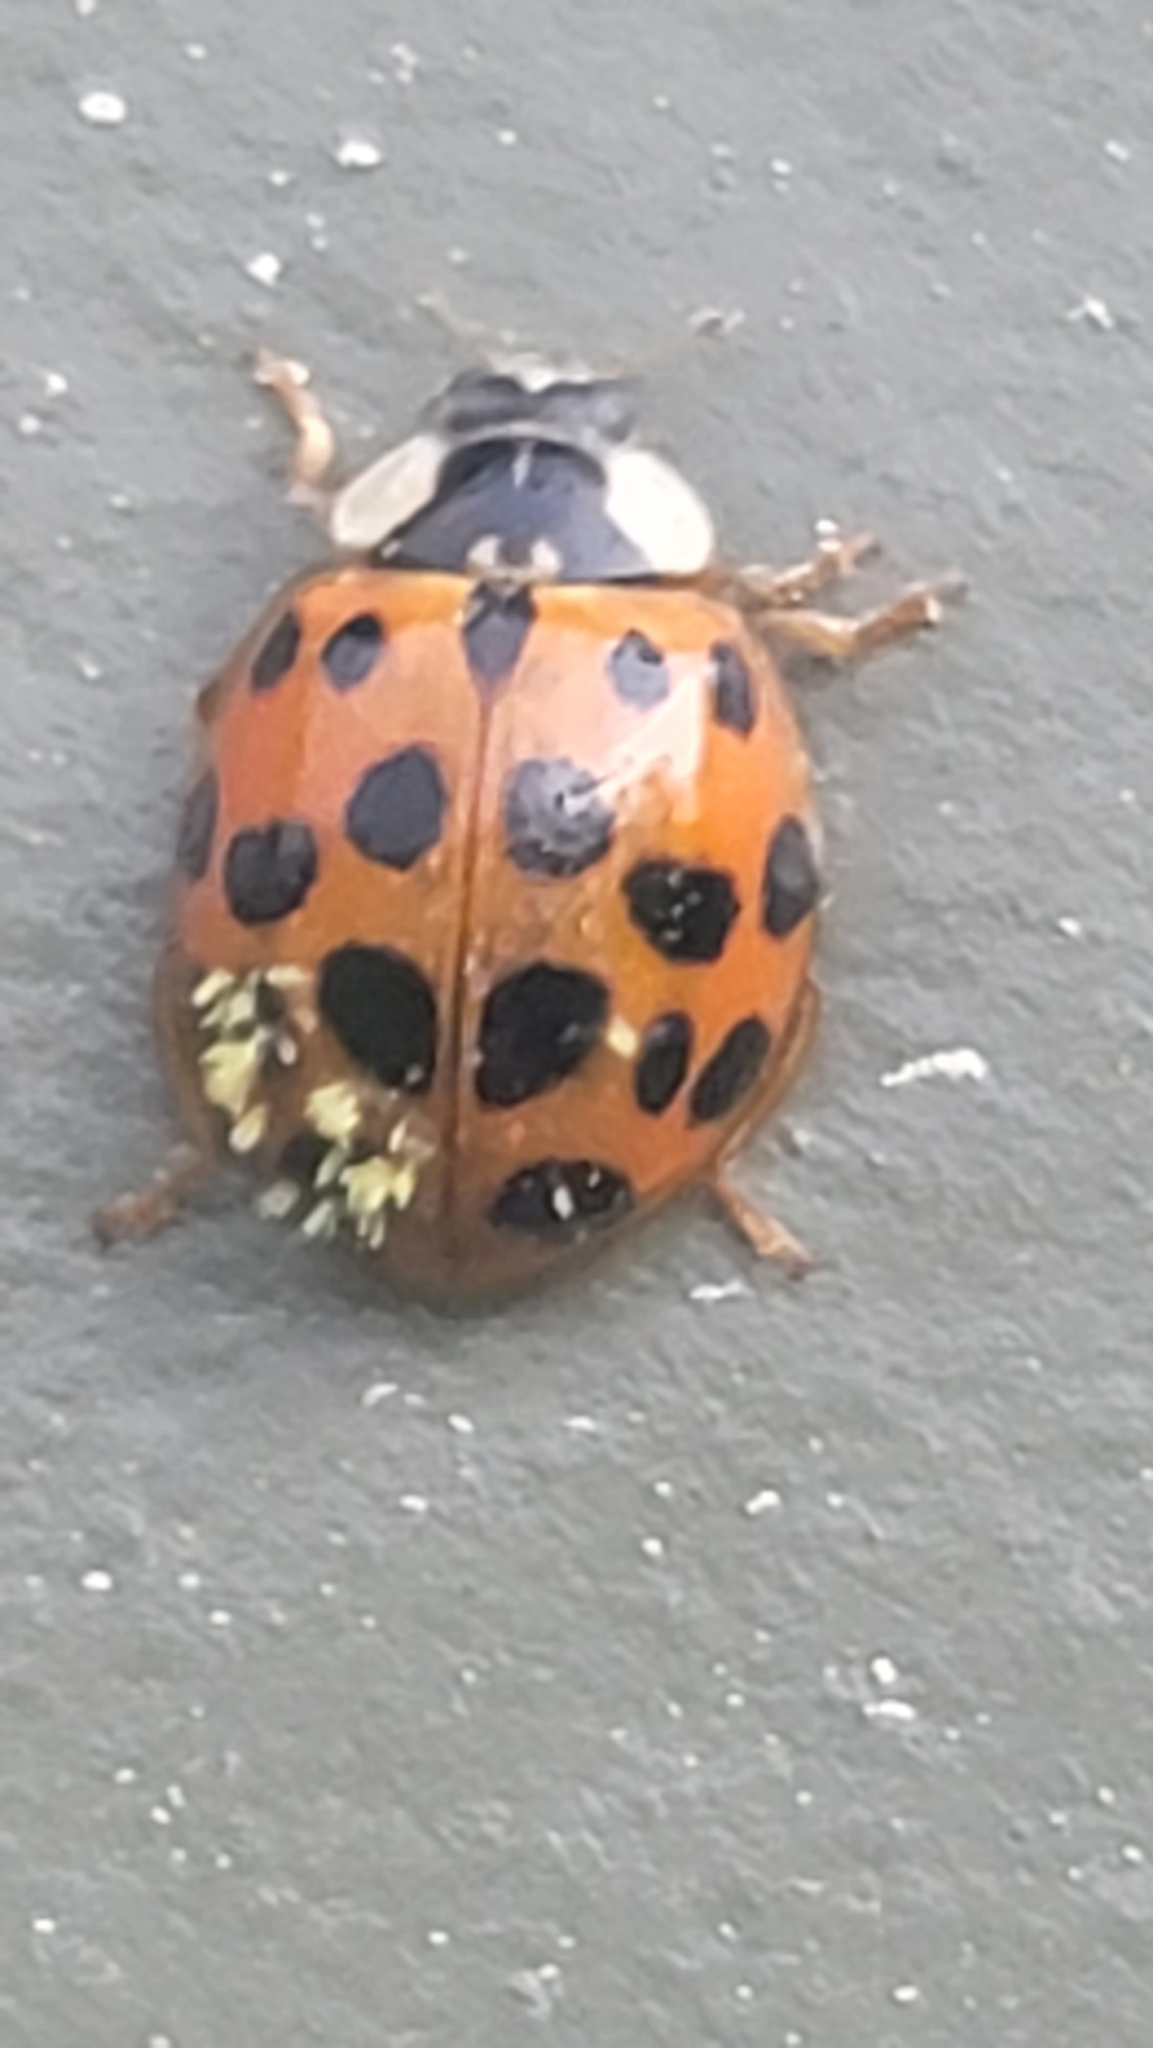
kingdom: Animalia
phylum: Arthropoda
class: Insecta
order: Coleoptera
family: Coccinellidae
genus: Harmonia
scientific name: Harmonia axyridis
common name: Harlequin ladybird
